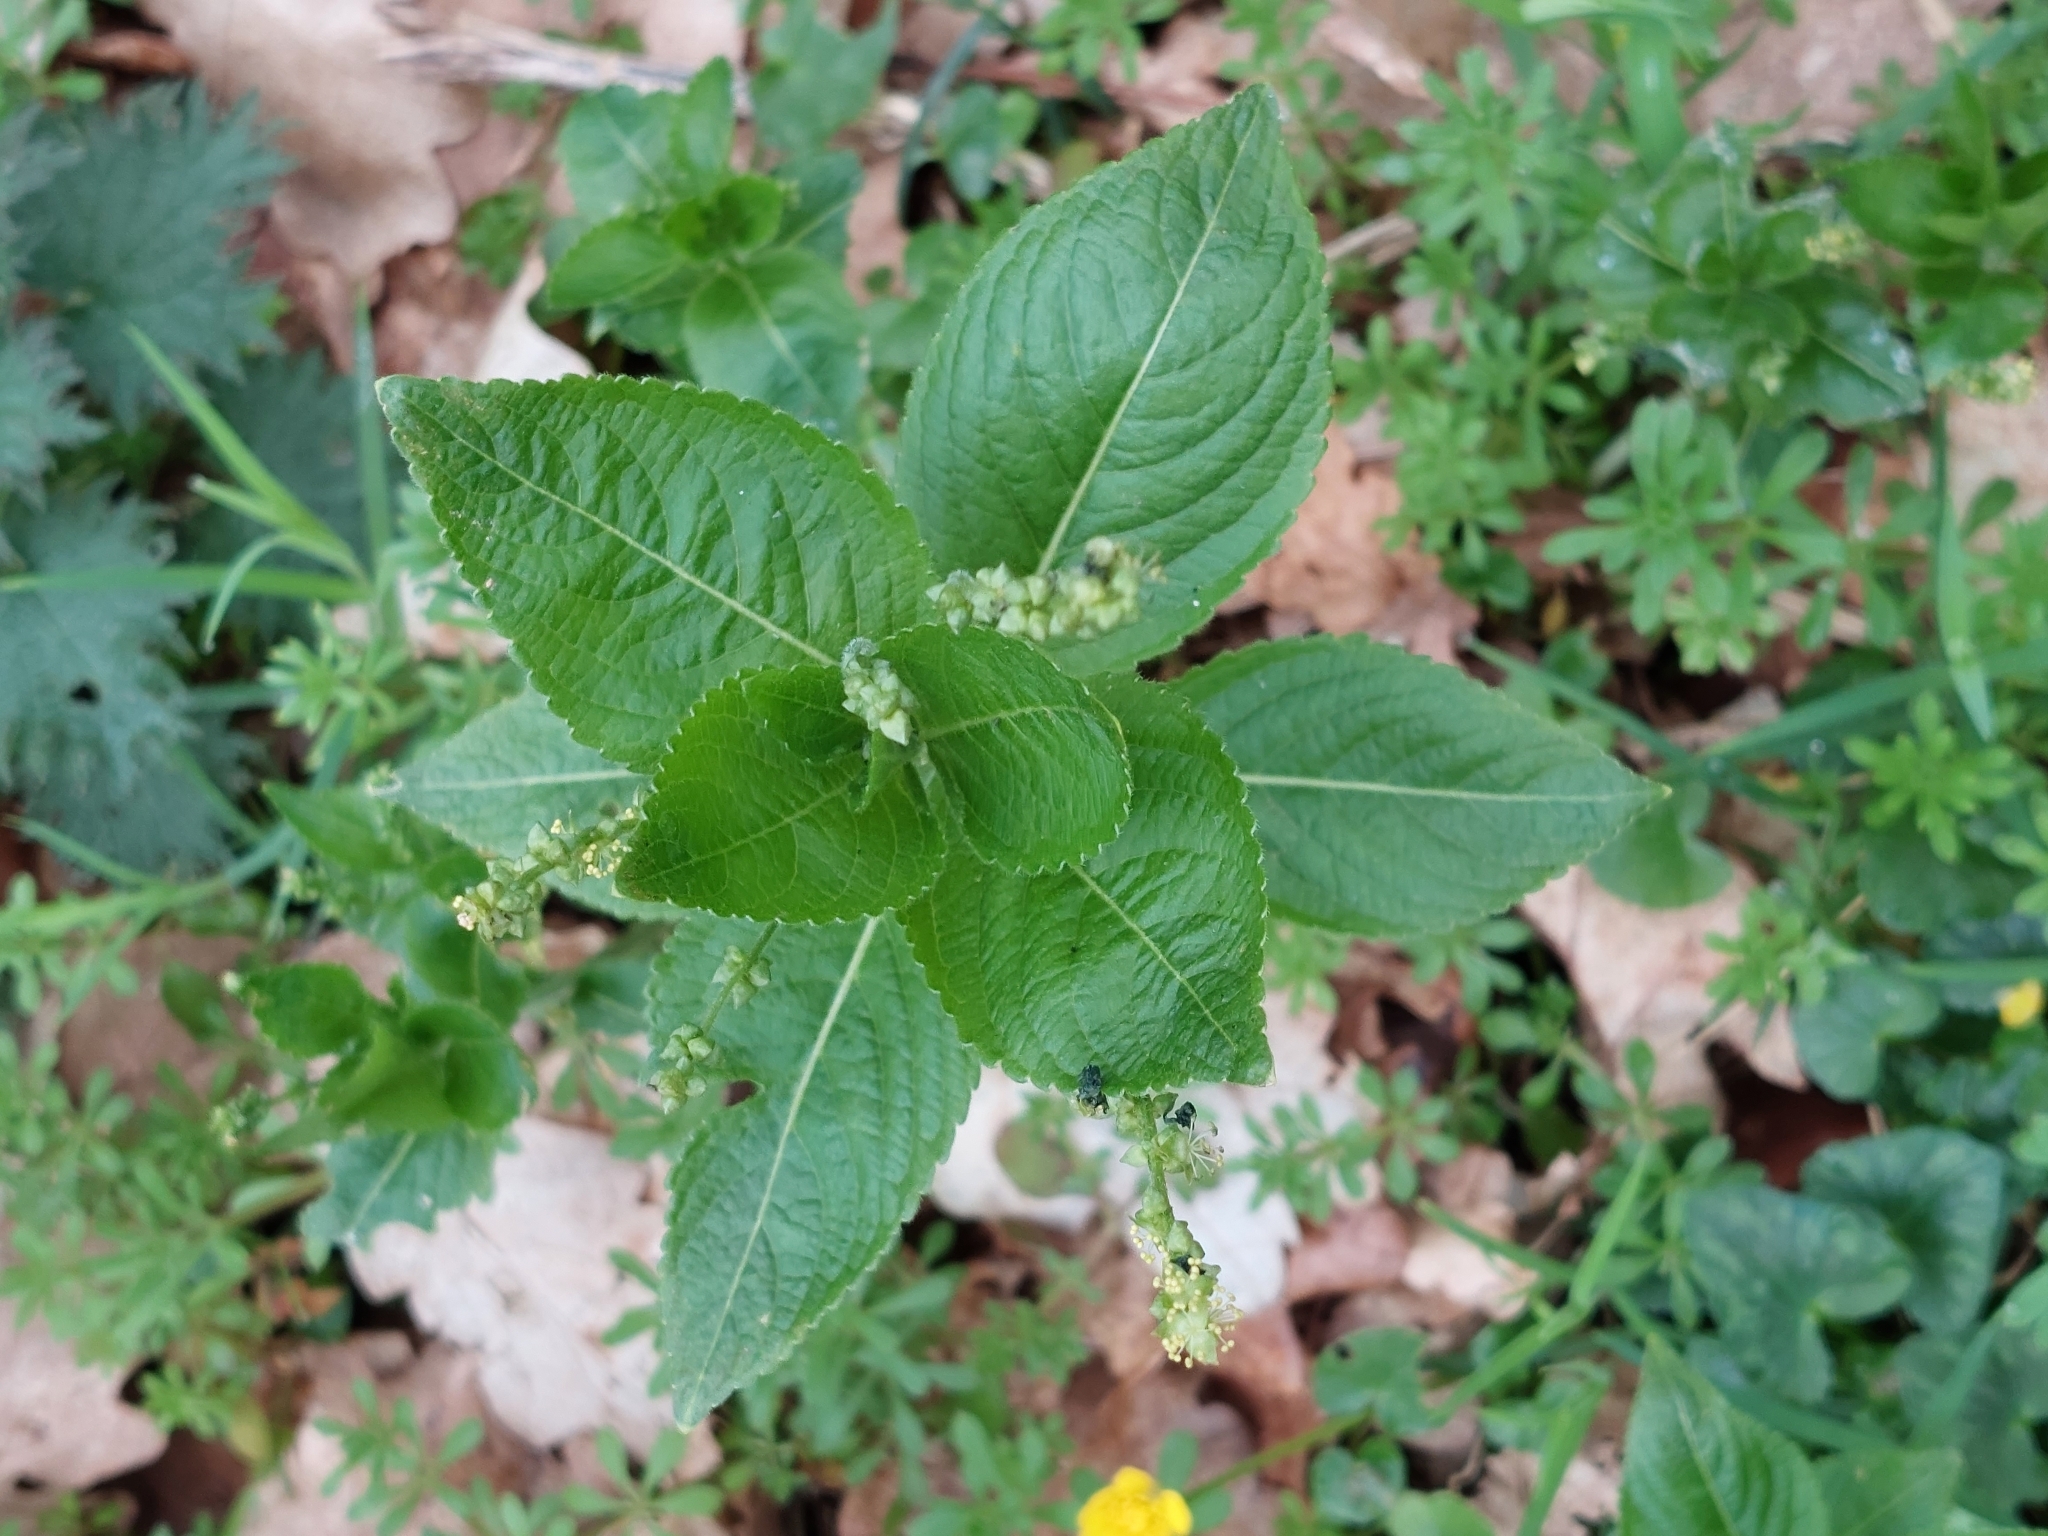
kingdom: Plantae
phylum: Tracheophyta
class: Magnoliopsida
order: Malpighiales
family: Euphorbiaceae
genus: Mercurialis
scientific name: Mercurialis perennis
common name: Dog mercury
